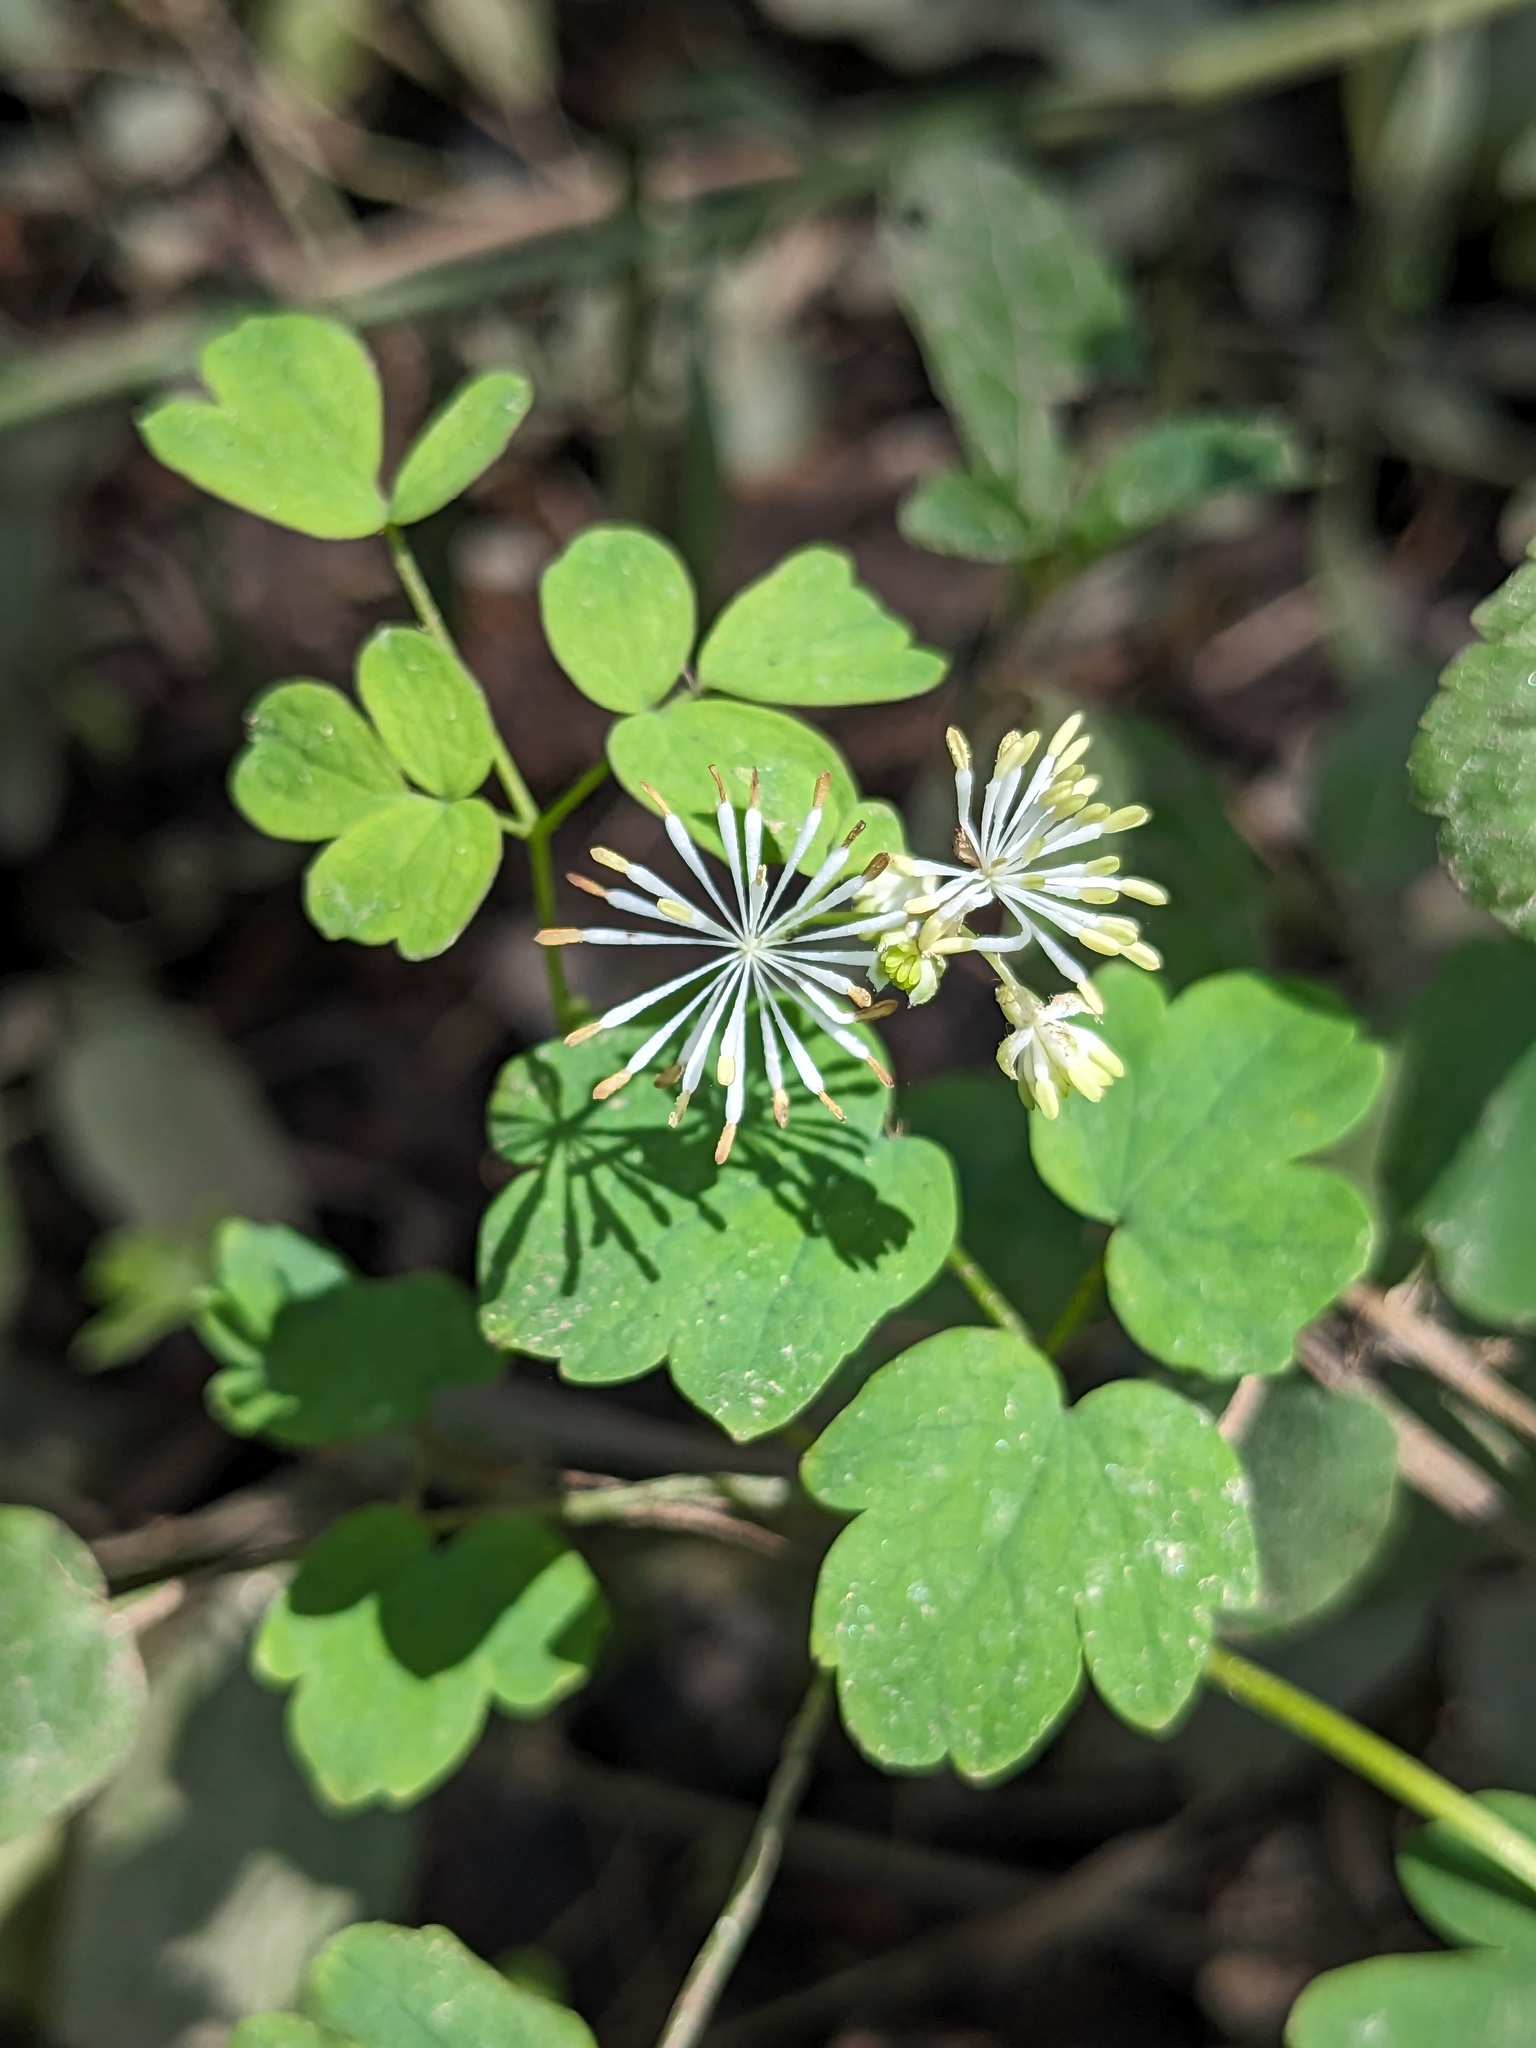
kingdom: Plantae
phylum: Tracheophyta
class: Magnoliopsida
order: Ranunculales
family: Ranunculaceae
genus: Thalictrum
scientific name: Thalictrum pubescens
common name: King-of-the-meadow
